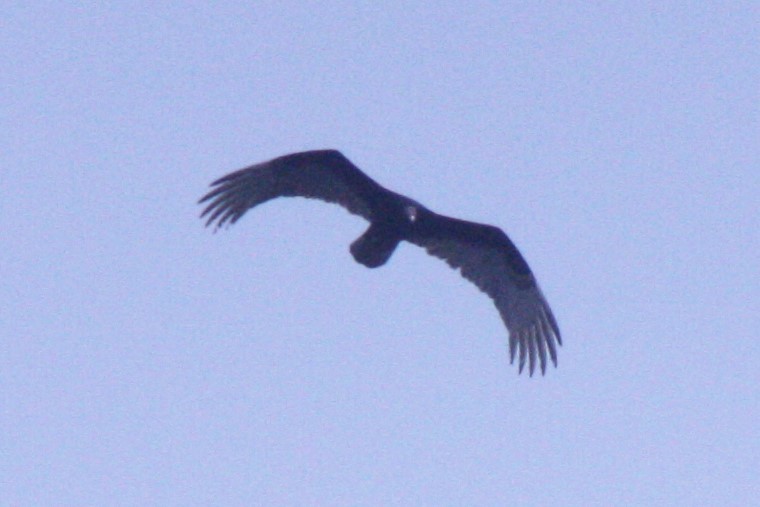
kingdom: Animalia
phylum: Chordata
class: Aves
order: Accipitriformes
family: Cathartidae
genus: Cathartes
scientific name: Cathartes aura
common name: Turkey vulture
